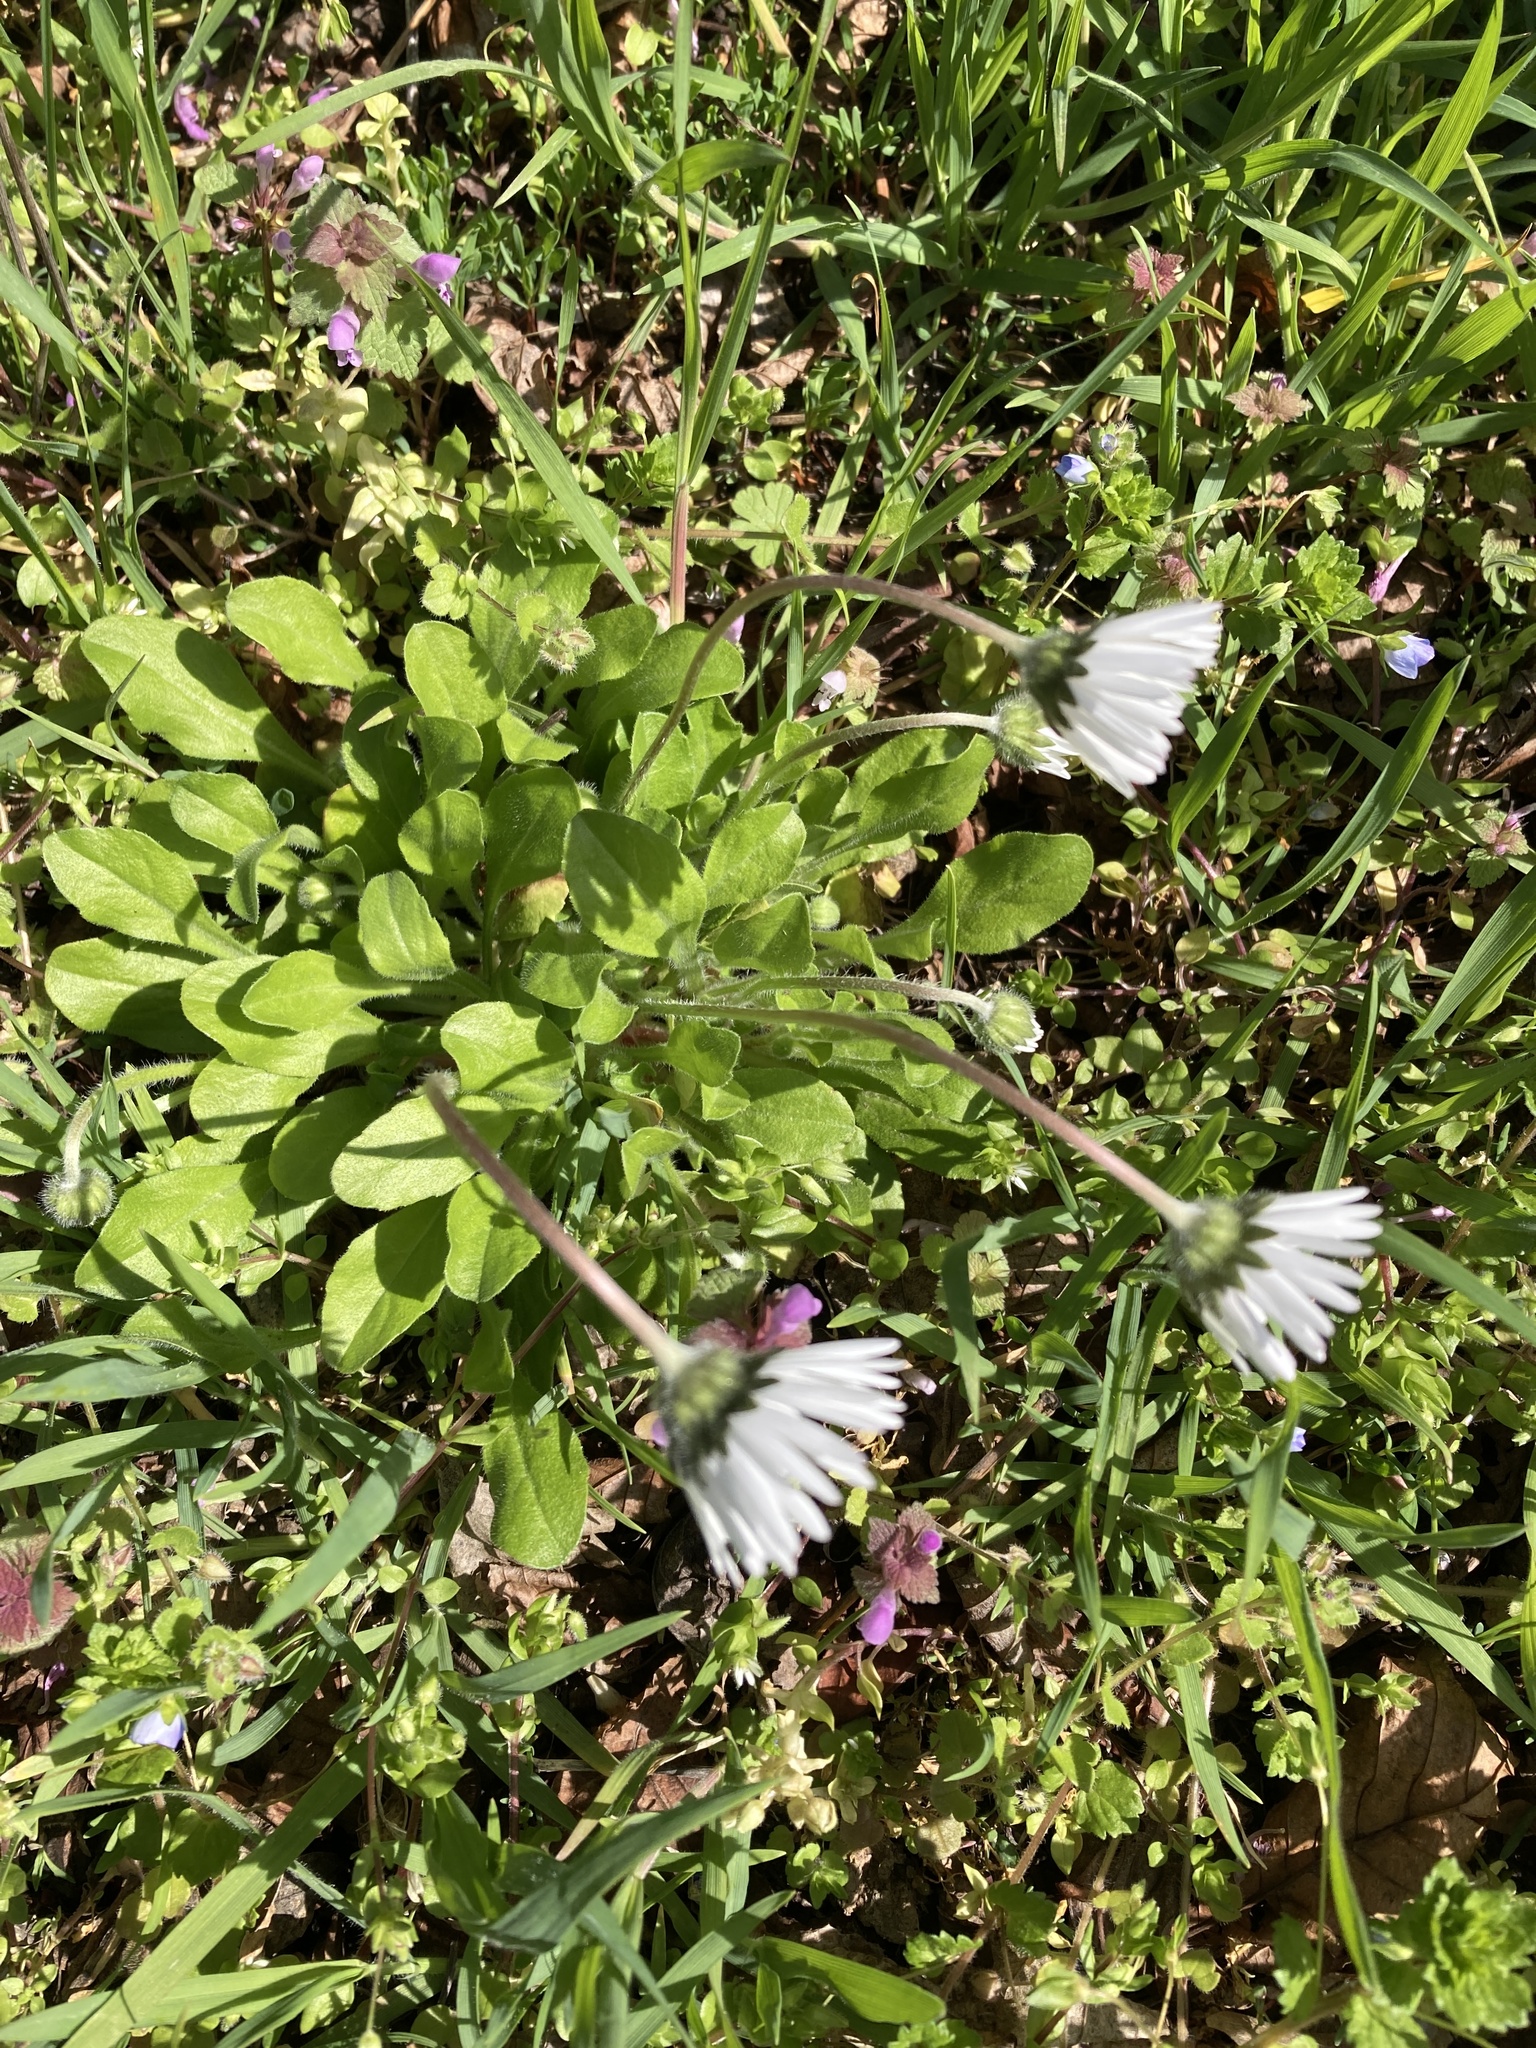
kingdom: Plantae
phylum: Tracheophyta
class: Magnoliopsida
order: Asterales
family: Asteraceae
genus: Bellis
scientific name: Bellis perennis
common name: Lawndaisy
